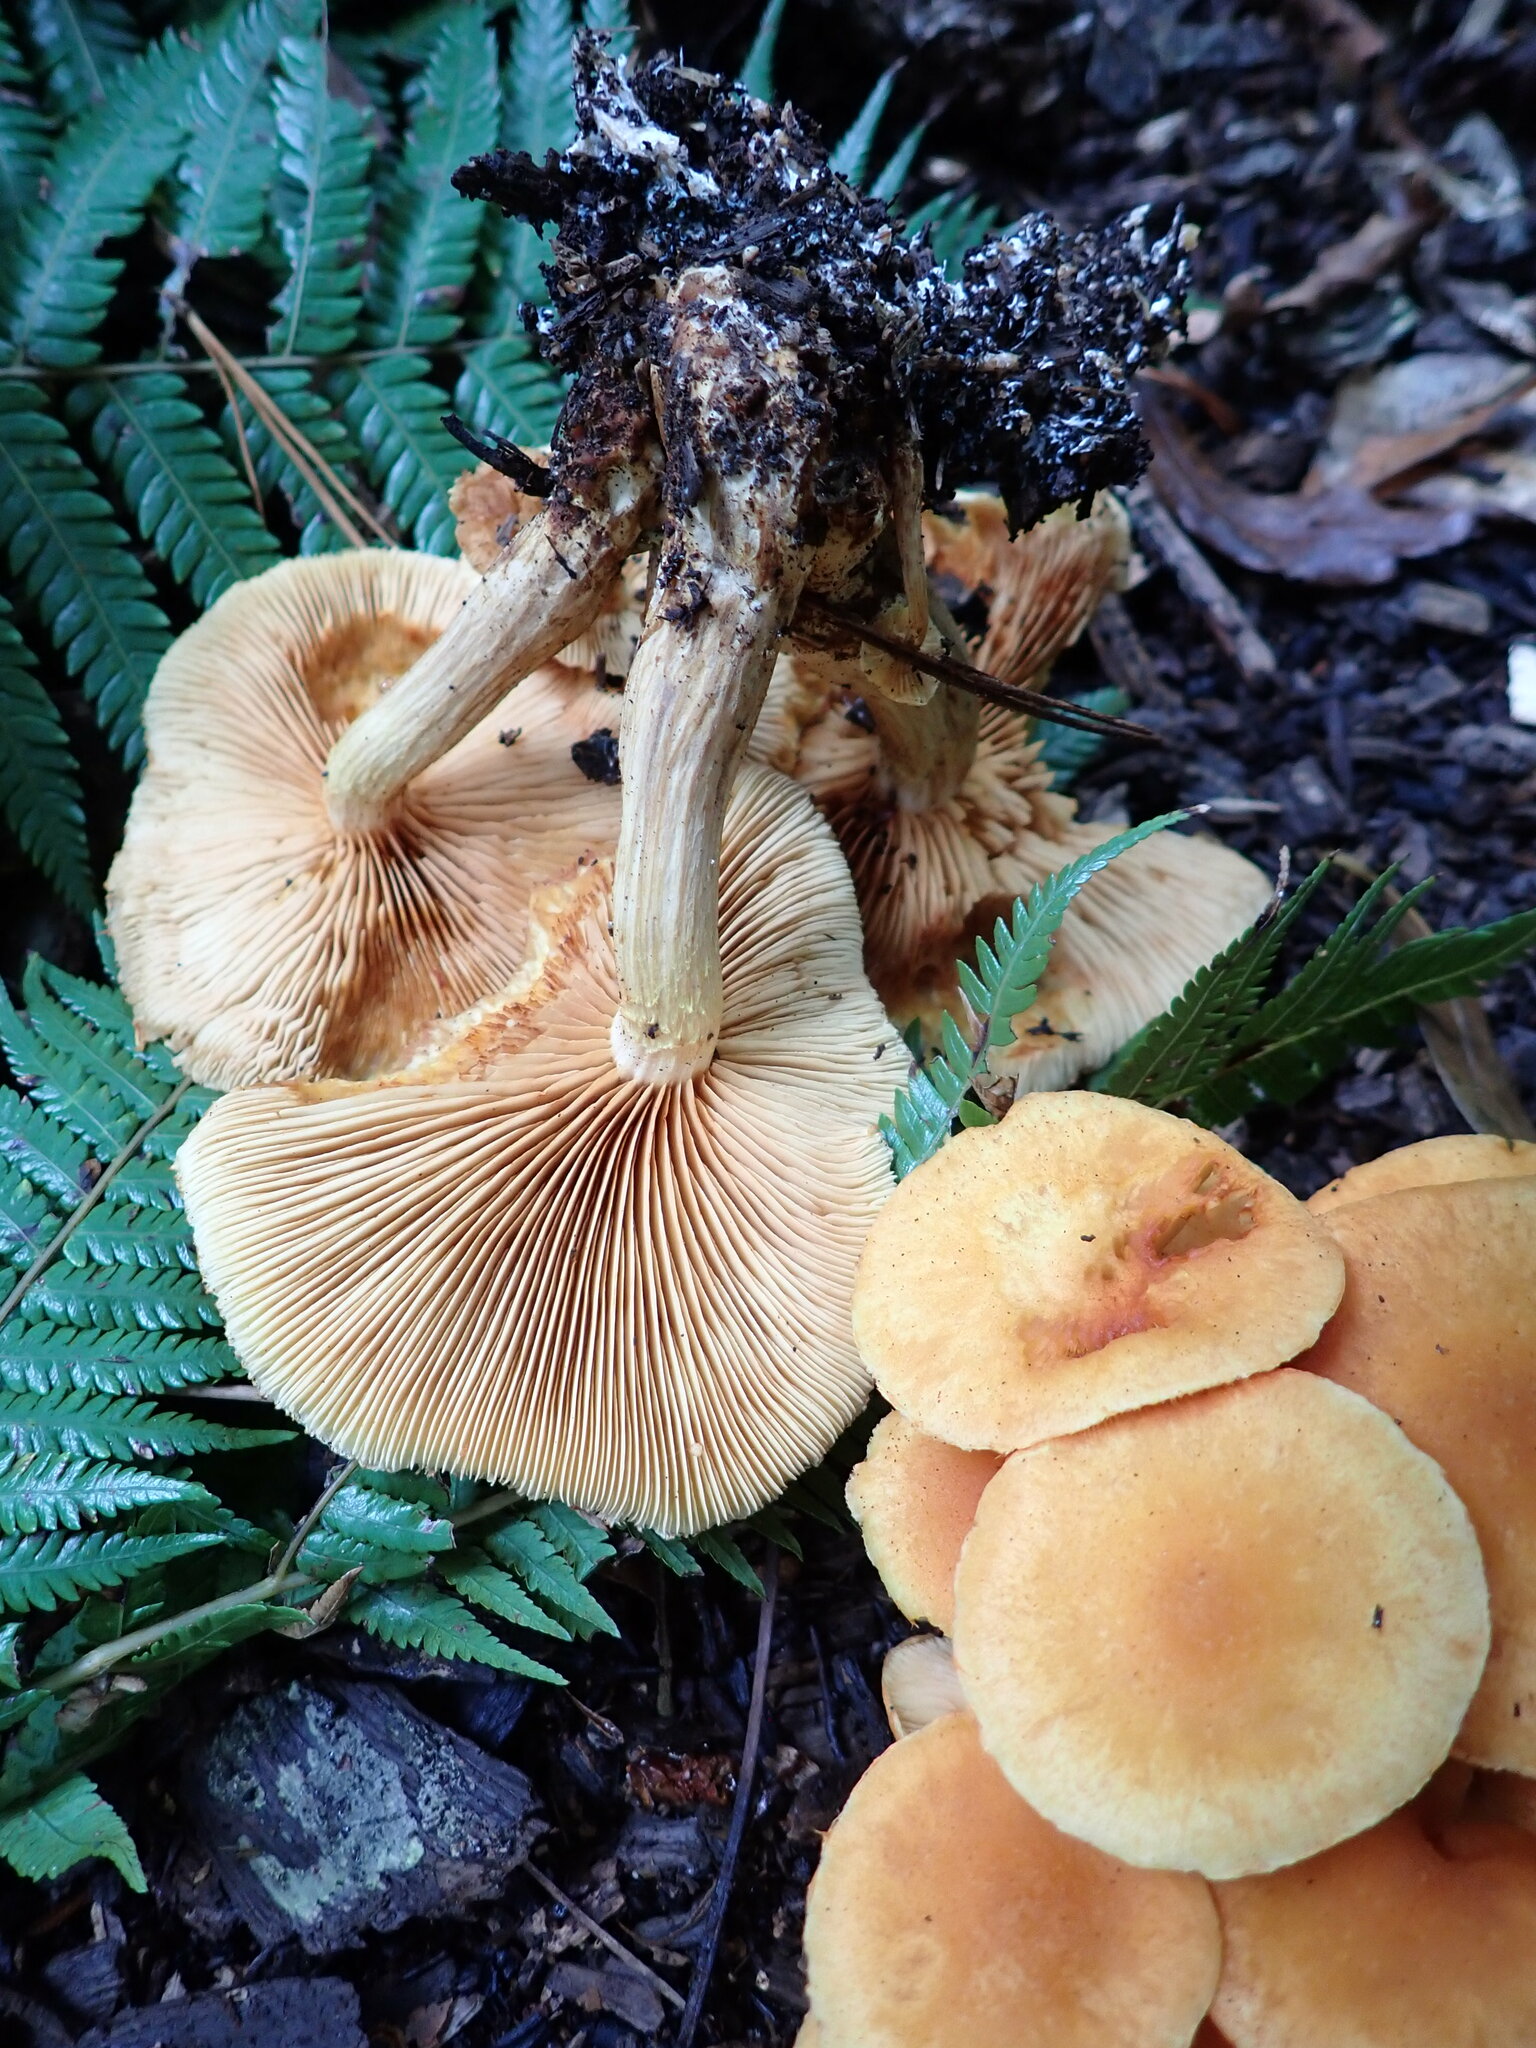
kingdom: Fungi
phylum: Basidiomycota
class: Agaricomycetes
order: Agaricales
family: Hymenogastraceae
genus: Gymnopilus
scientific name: Gymnopilus penetrans
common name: Common rustgill
